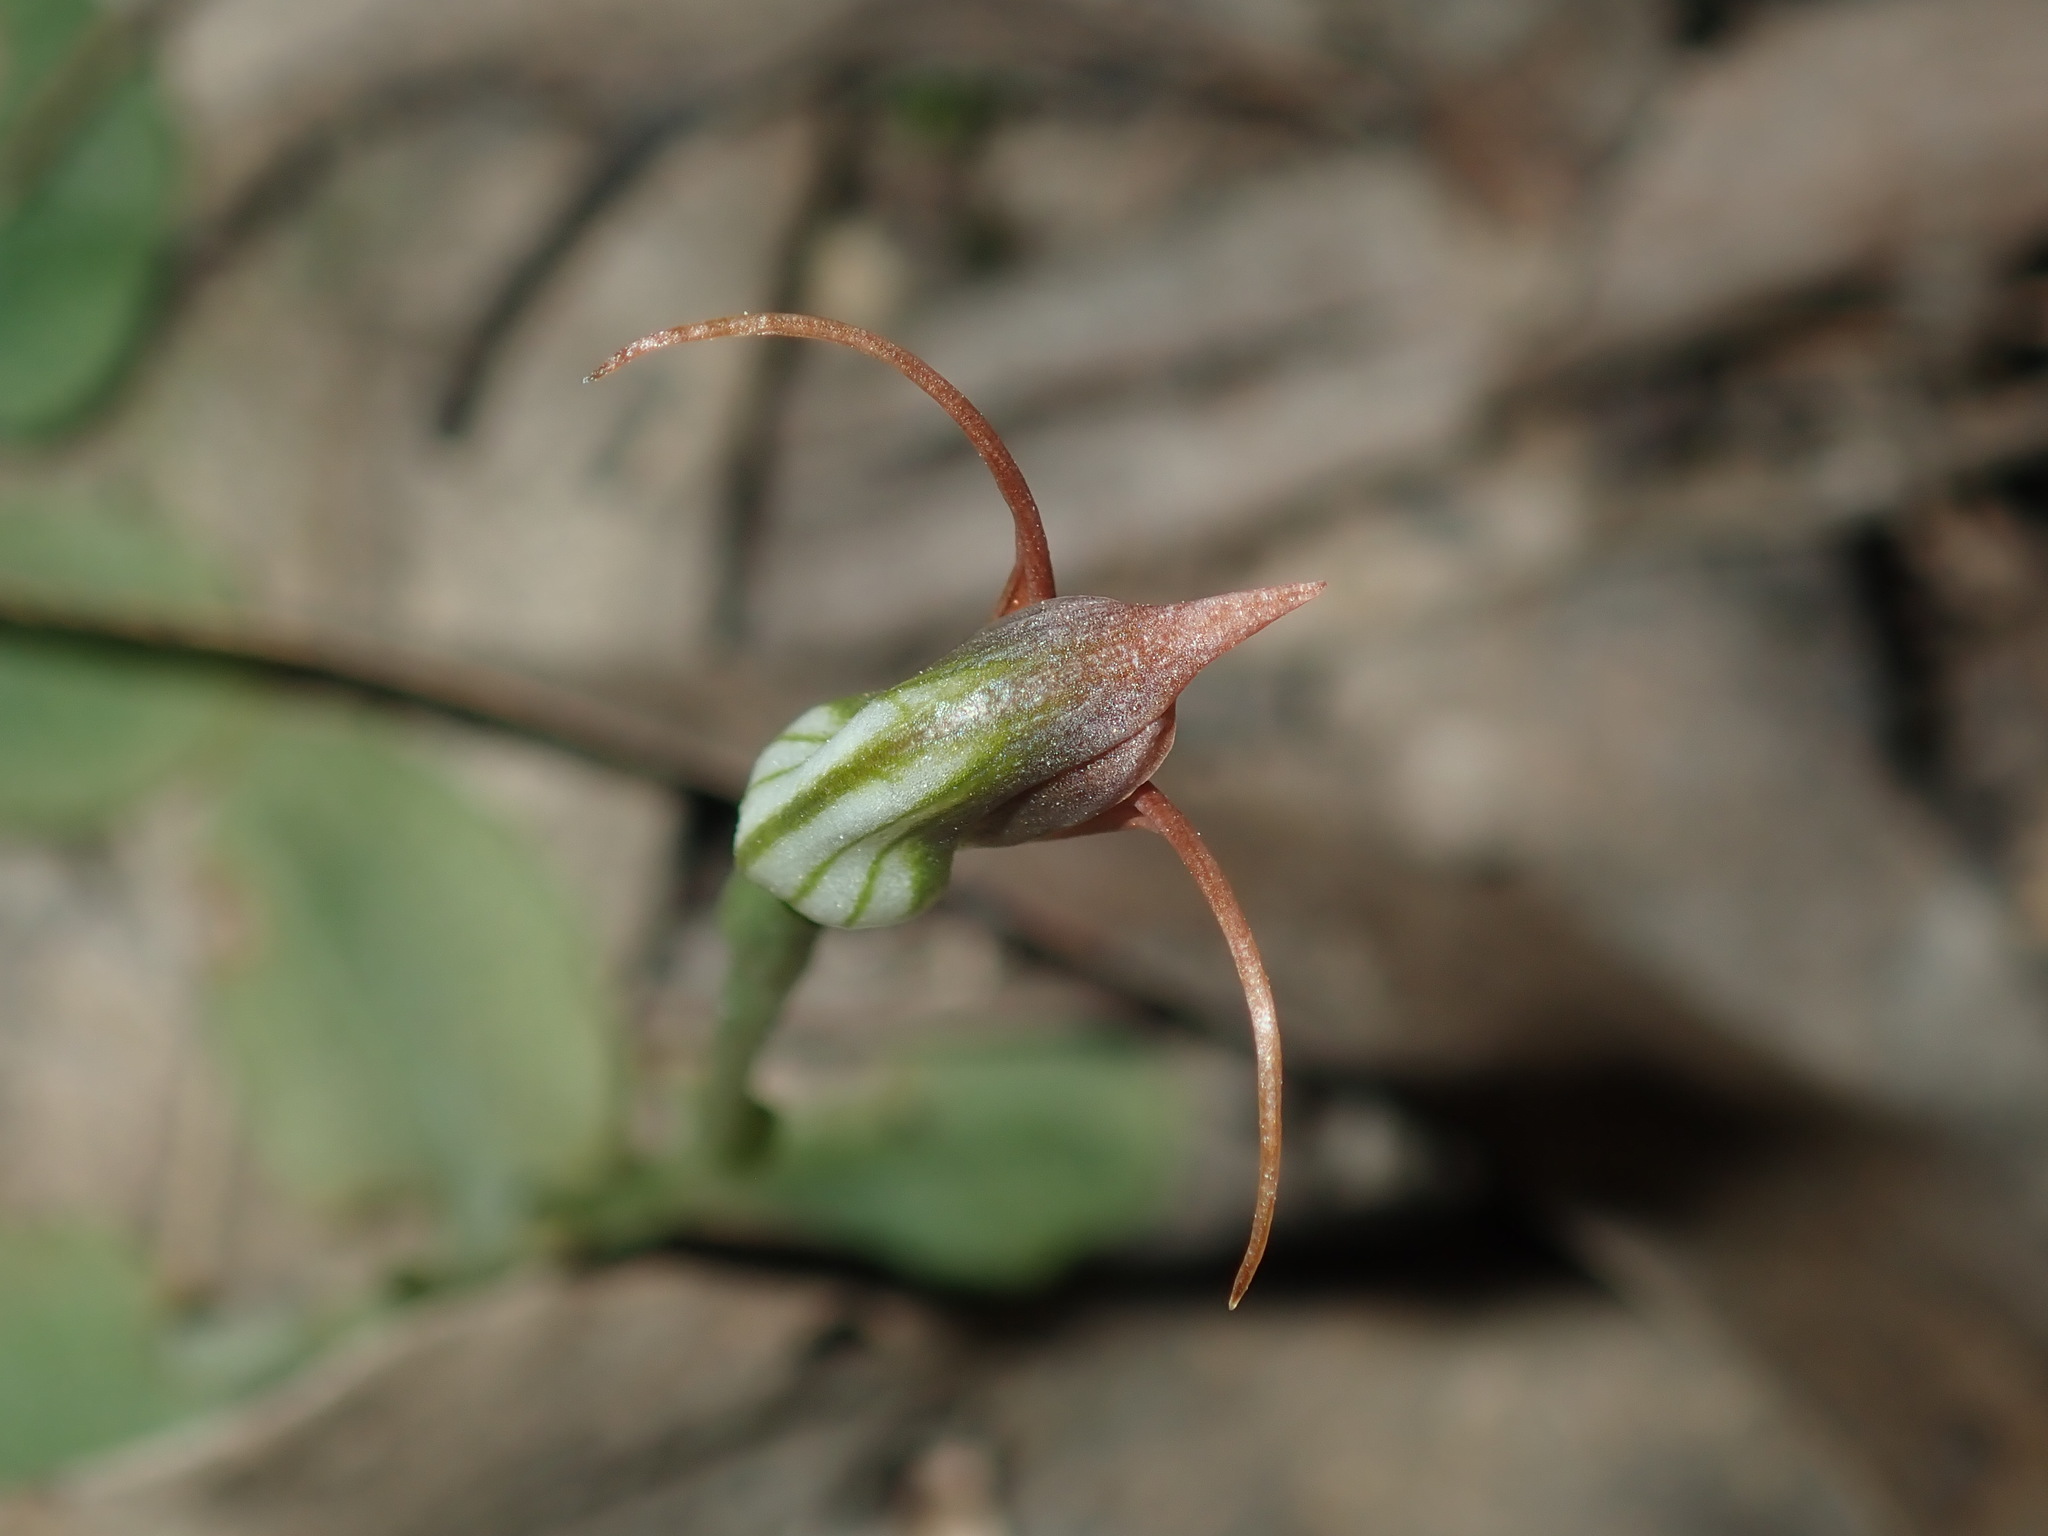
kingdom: Plantae
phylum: Tracheophyta
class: Liliopsida
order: Asparagales
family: Orchidaceae
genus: Pterostylis
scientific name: Pterostylis oblonga
